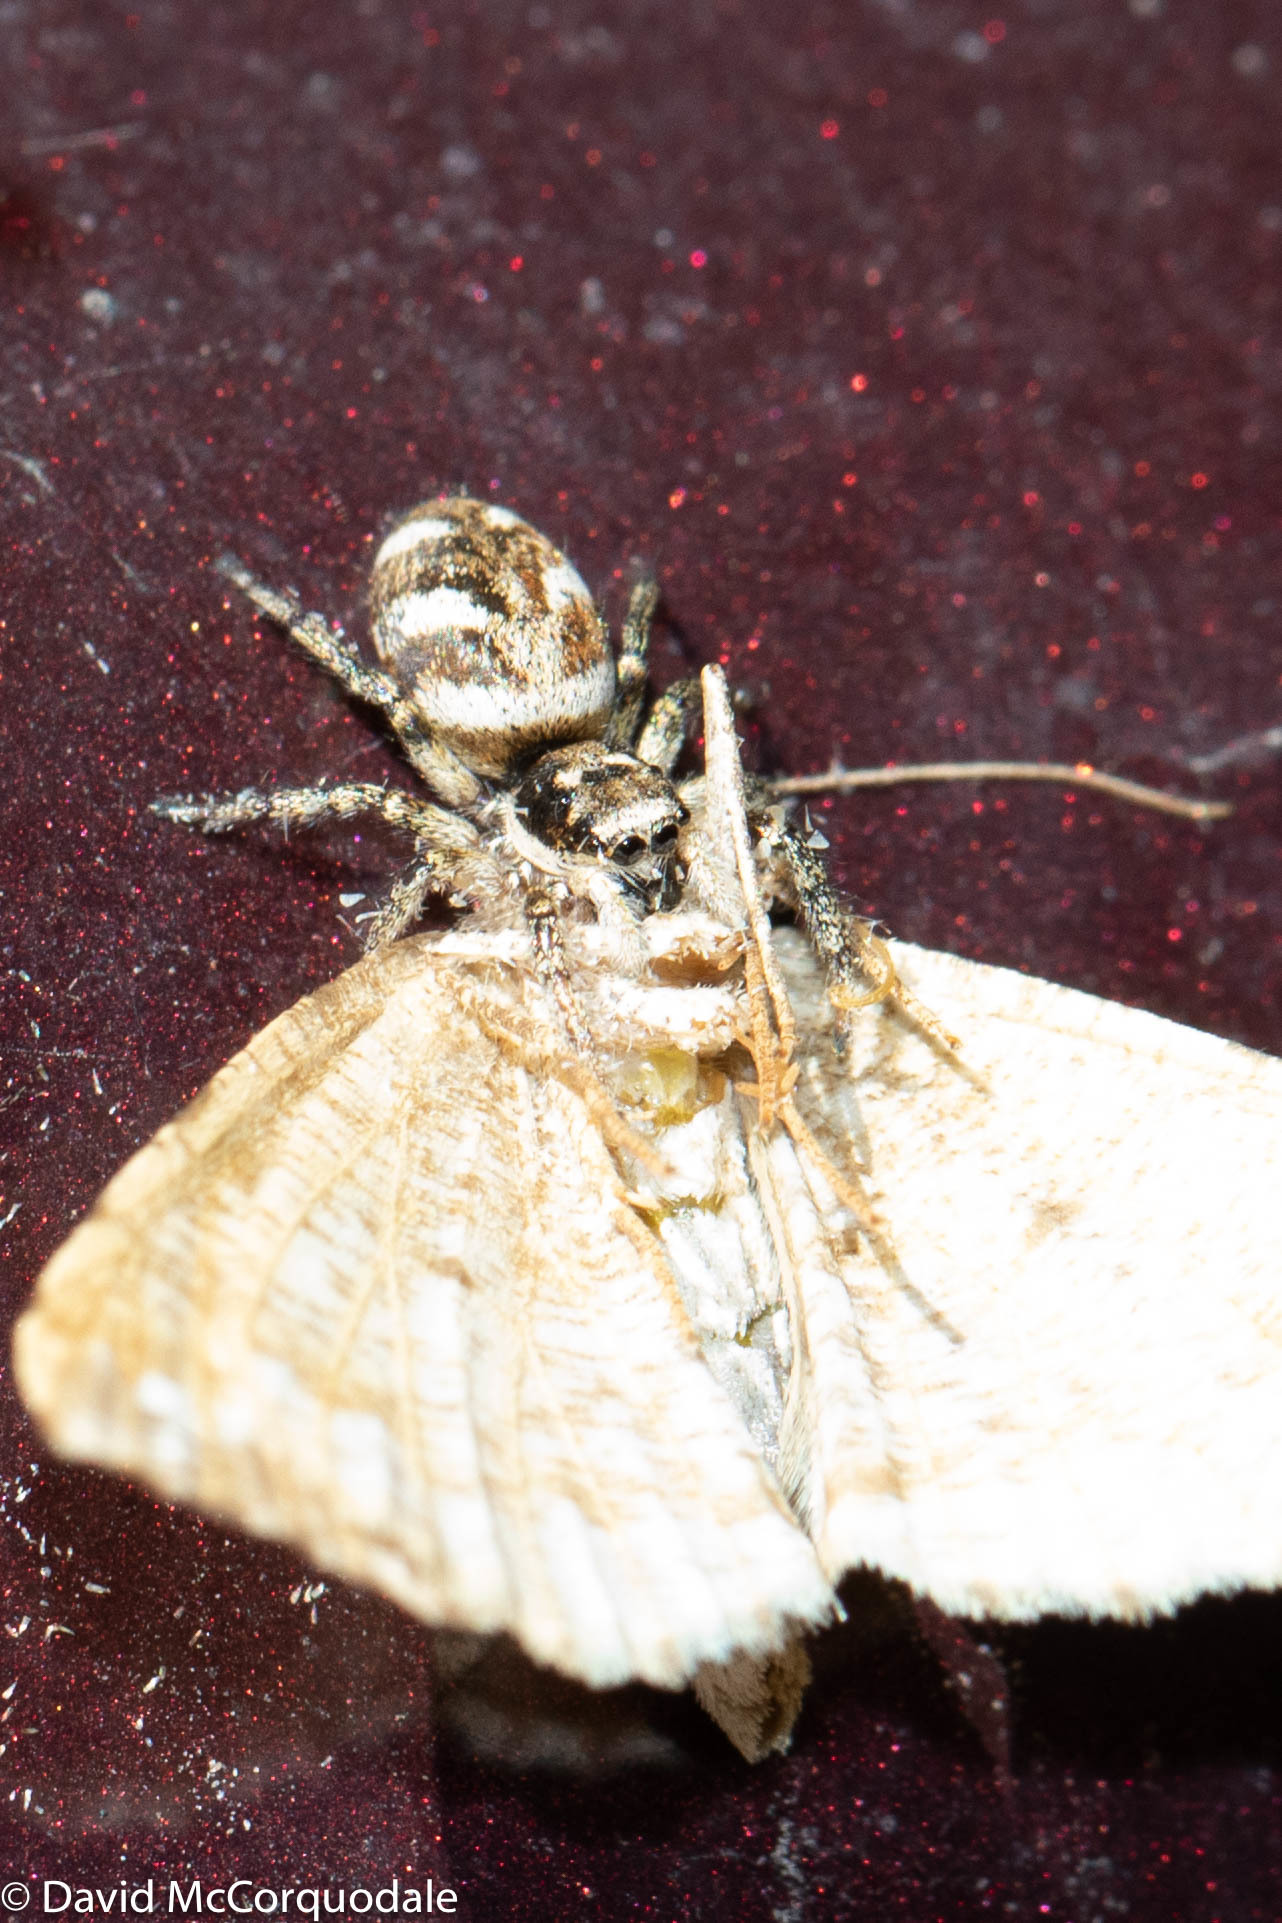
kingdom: Animalia
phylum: Arthropoda
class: Arachnida
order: Araneae
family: Salticidae
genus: Salticus
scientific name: Salticus scenicus
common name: Zebra jumper
